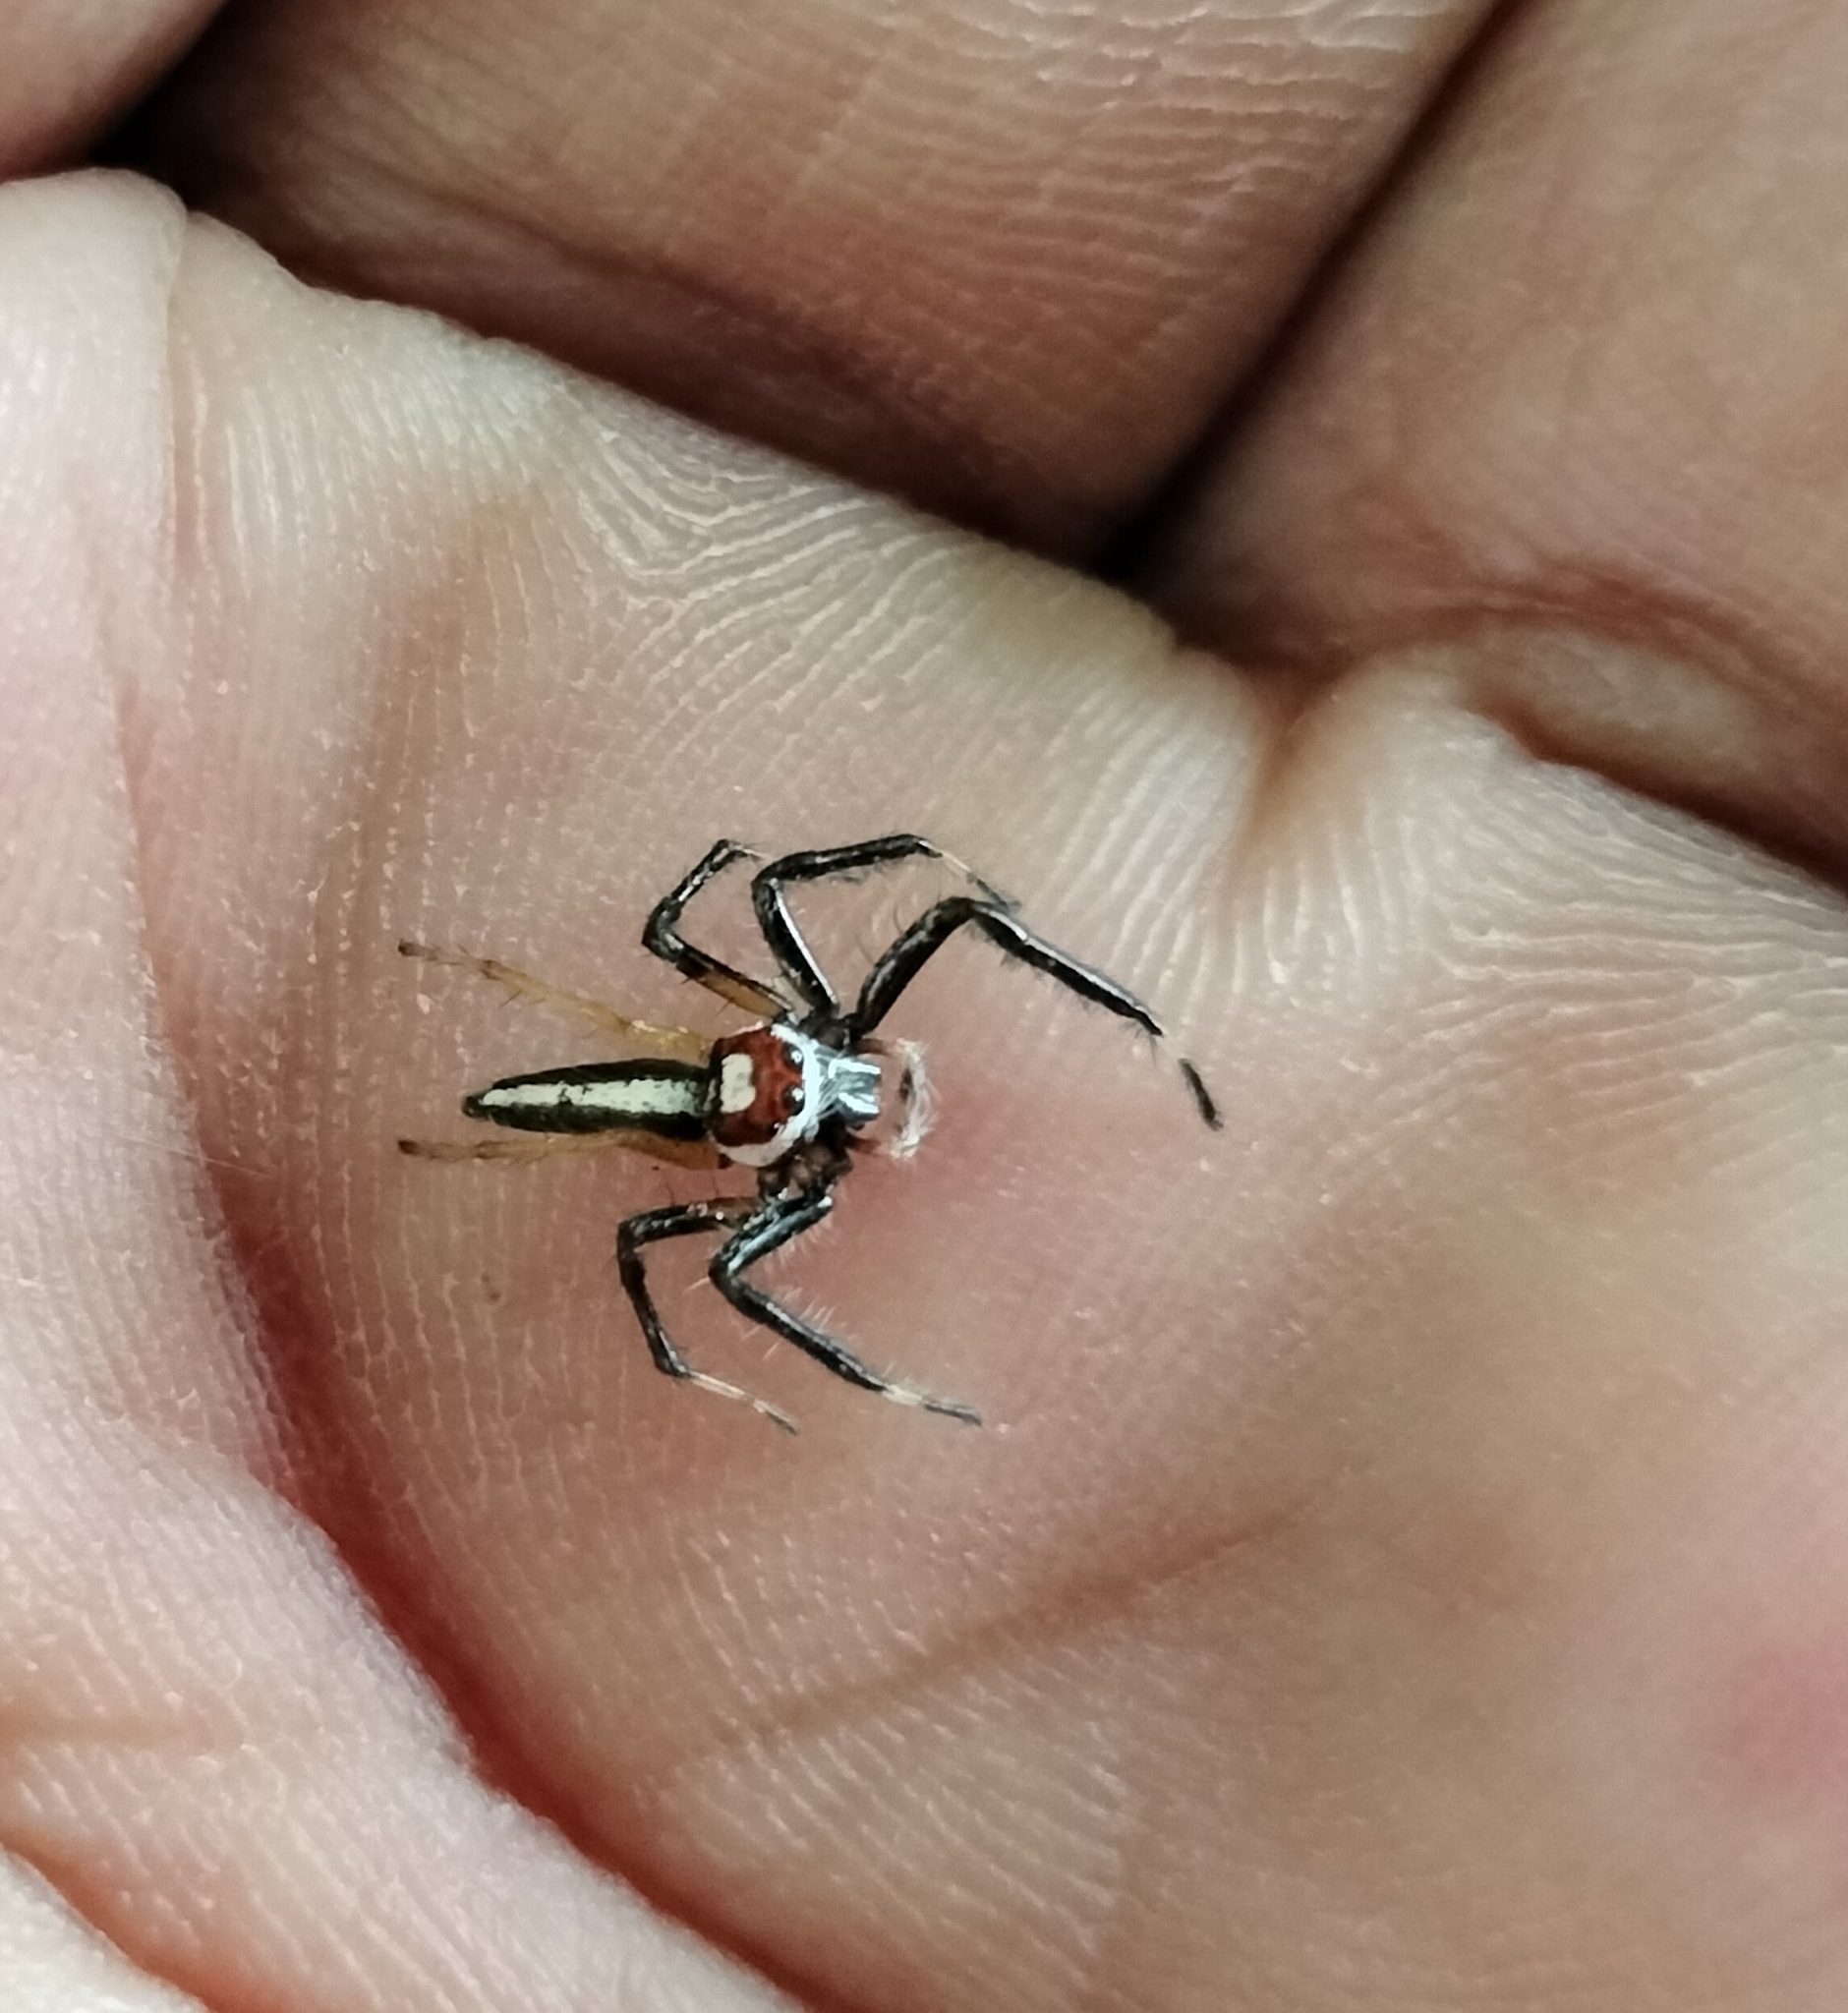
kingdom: Animalia
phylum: Arthropoda
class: Arachnida
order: Araneae
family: Salticidae
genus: Telamonia
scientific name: Telamonia dimidiata
